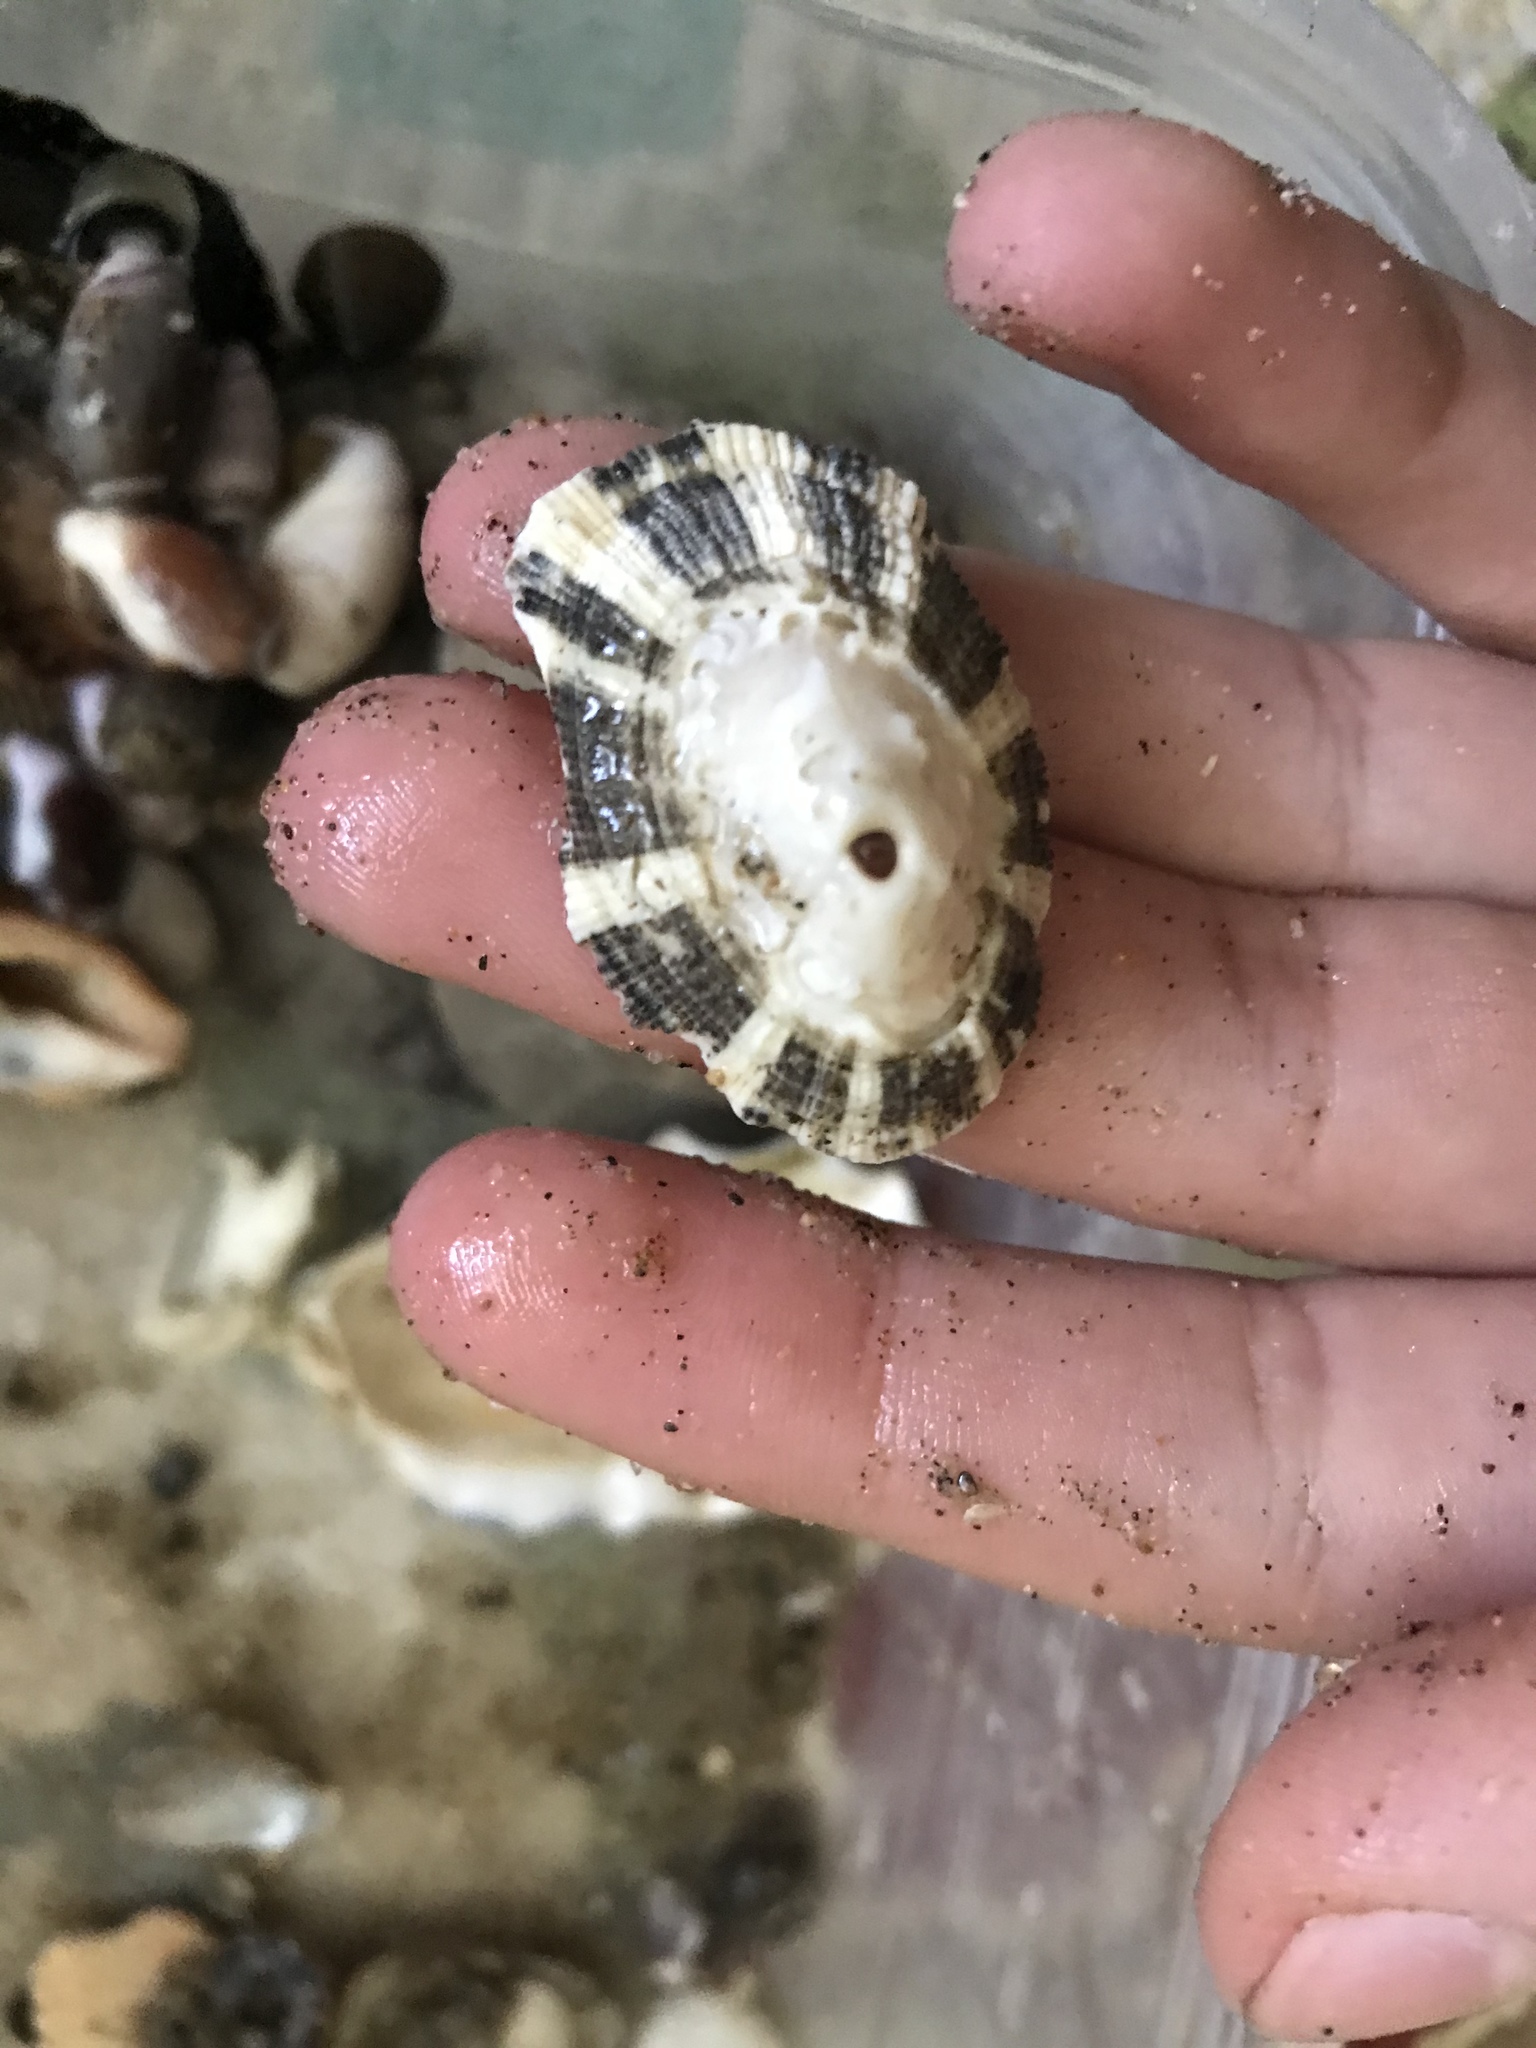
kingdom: Animalia
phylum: Mollusca
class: Gastropoda
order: Lepetellida
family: Fissurellidae
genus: Diodora
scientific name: Diodora aspera
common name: Rough keyhole limpet
